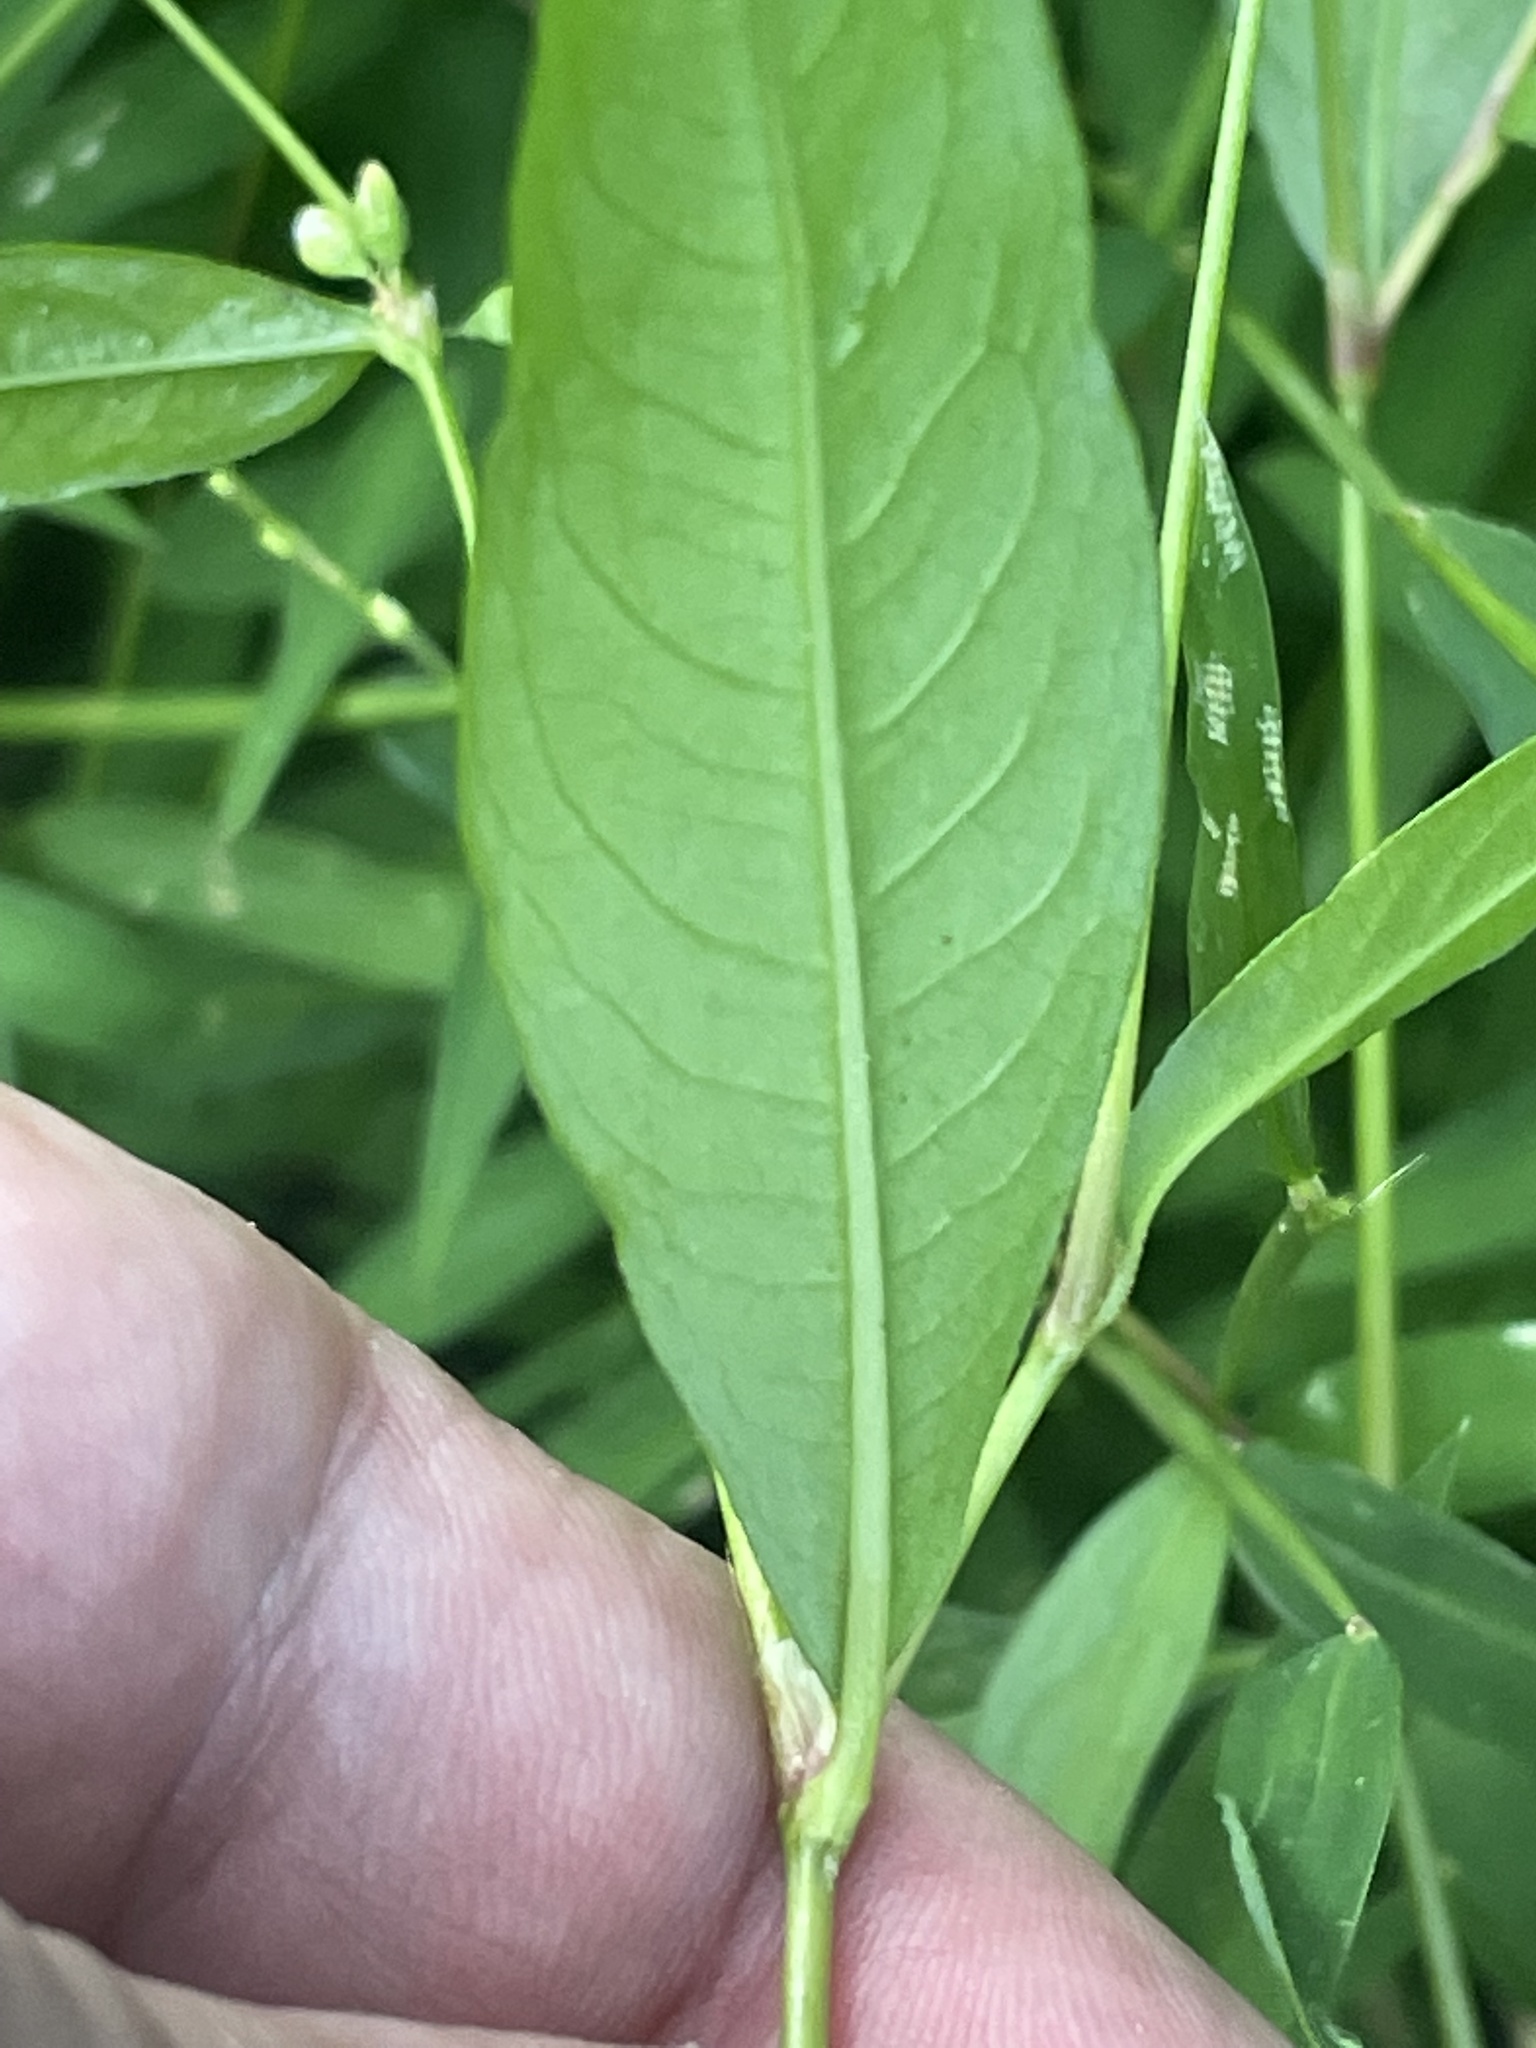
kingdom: Plantae
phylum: Tracheophyta
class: Magnoliopsida
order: Caryophyllales
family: Polygonaceae
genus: Persicaria
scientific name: Persicaria punctata
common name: Dotted smartweed
